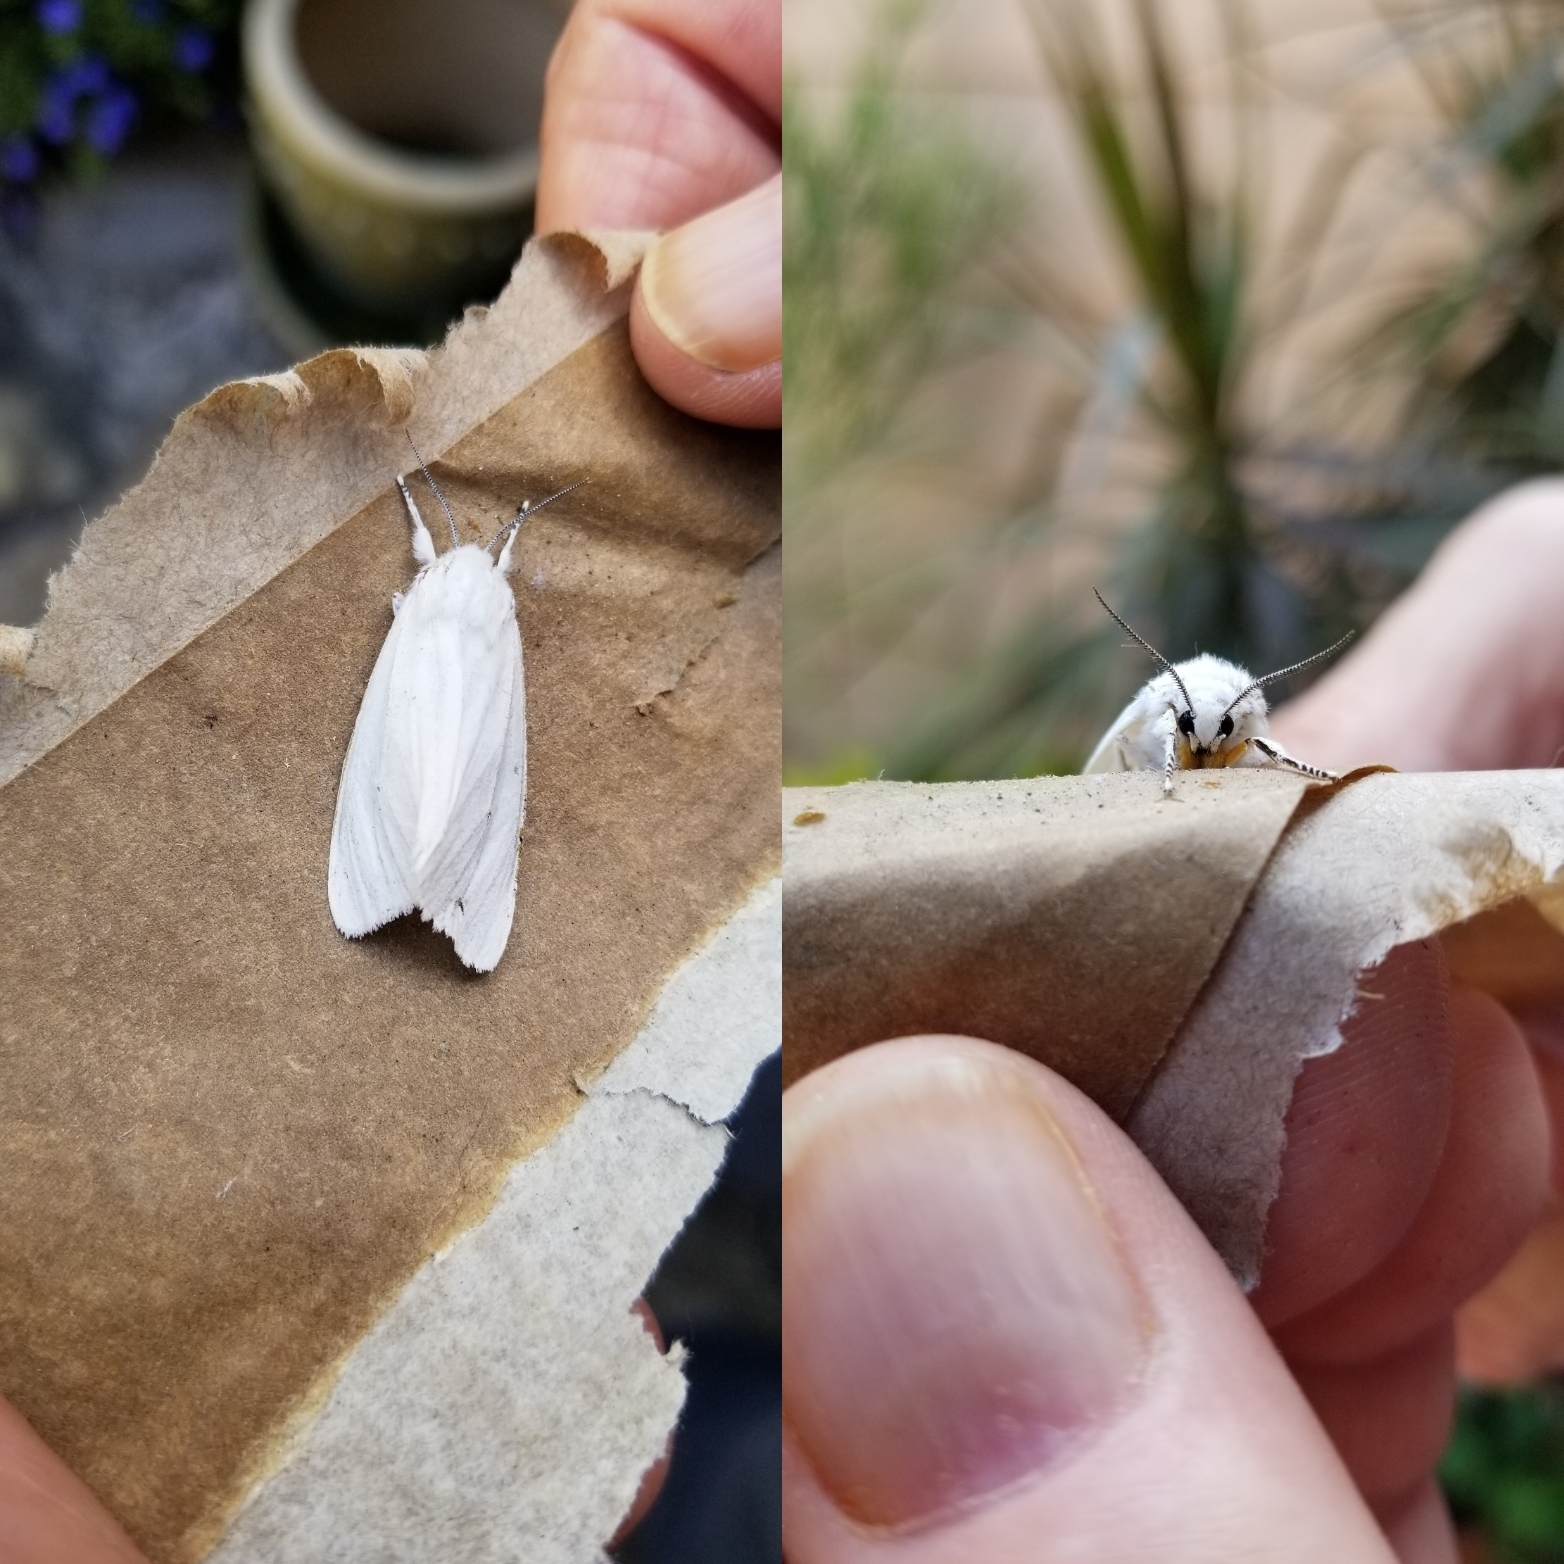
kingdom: Animalia
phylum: Arthropoda
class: Insecta
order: Lepidoptera
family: Erebidae
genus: Spilosoma
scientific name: Spilosoma virginica
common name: Virginia tiger moth
